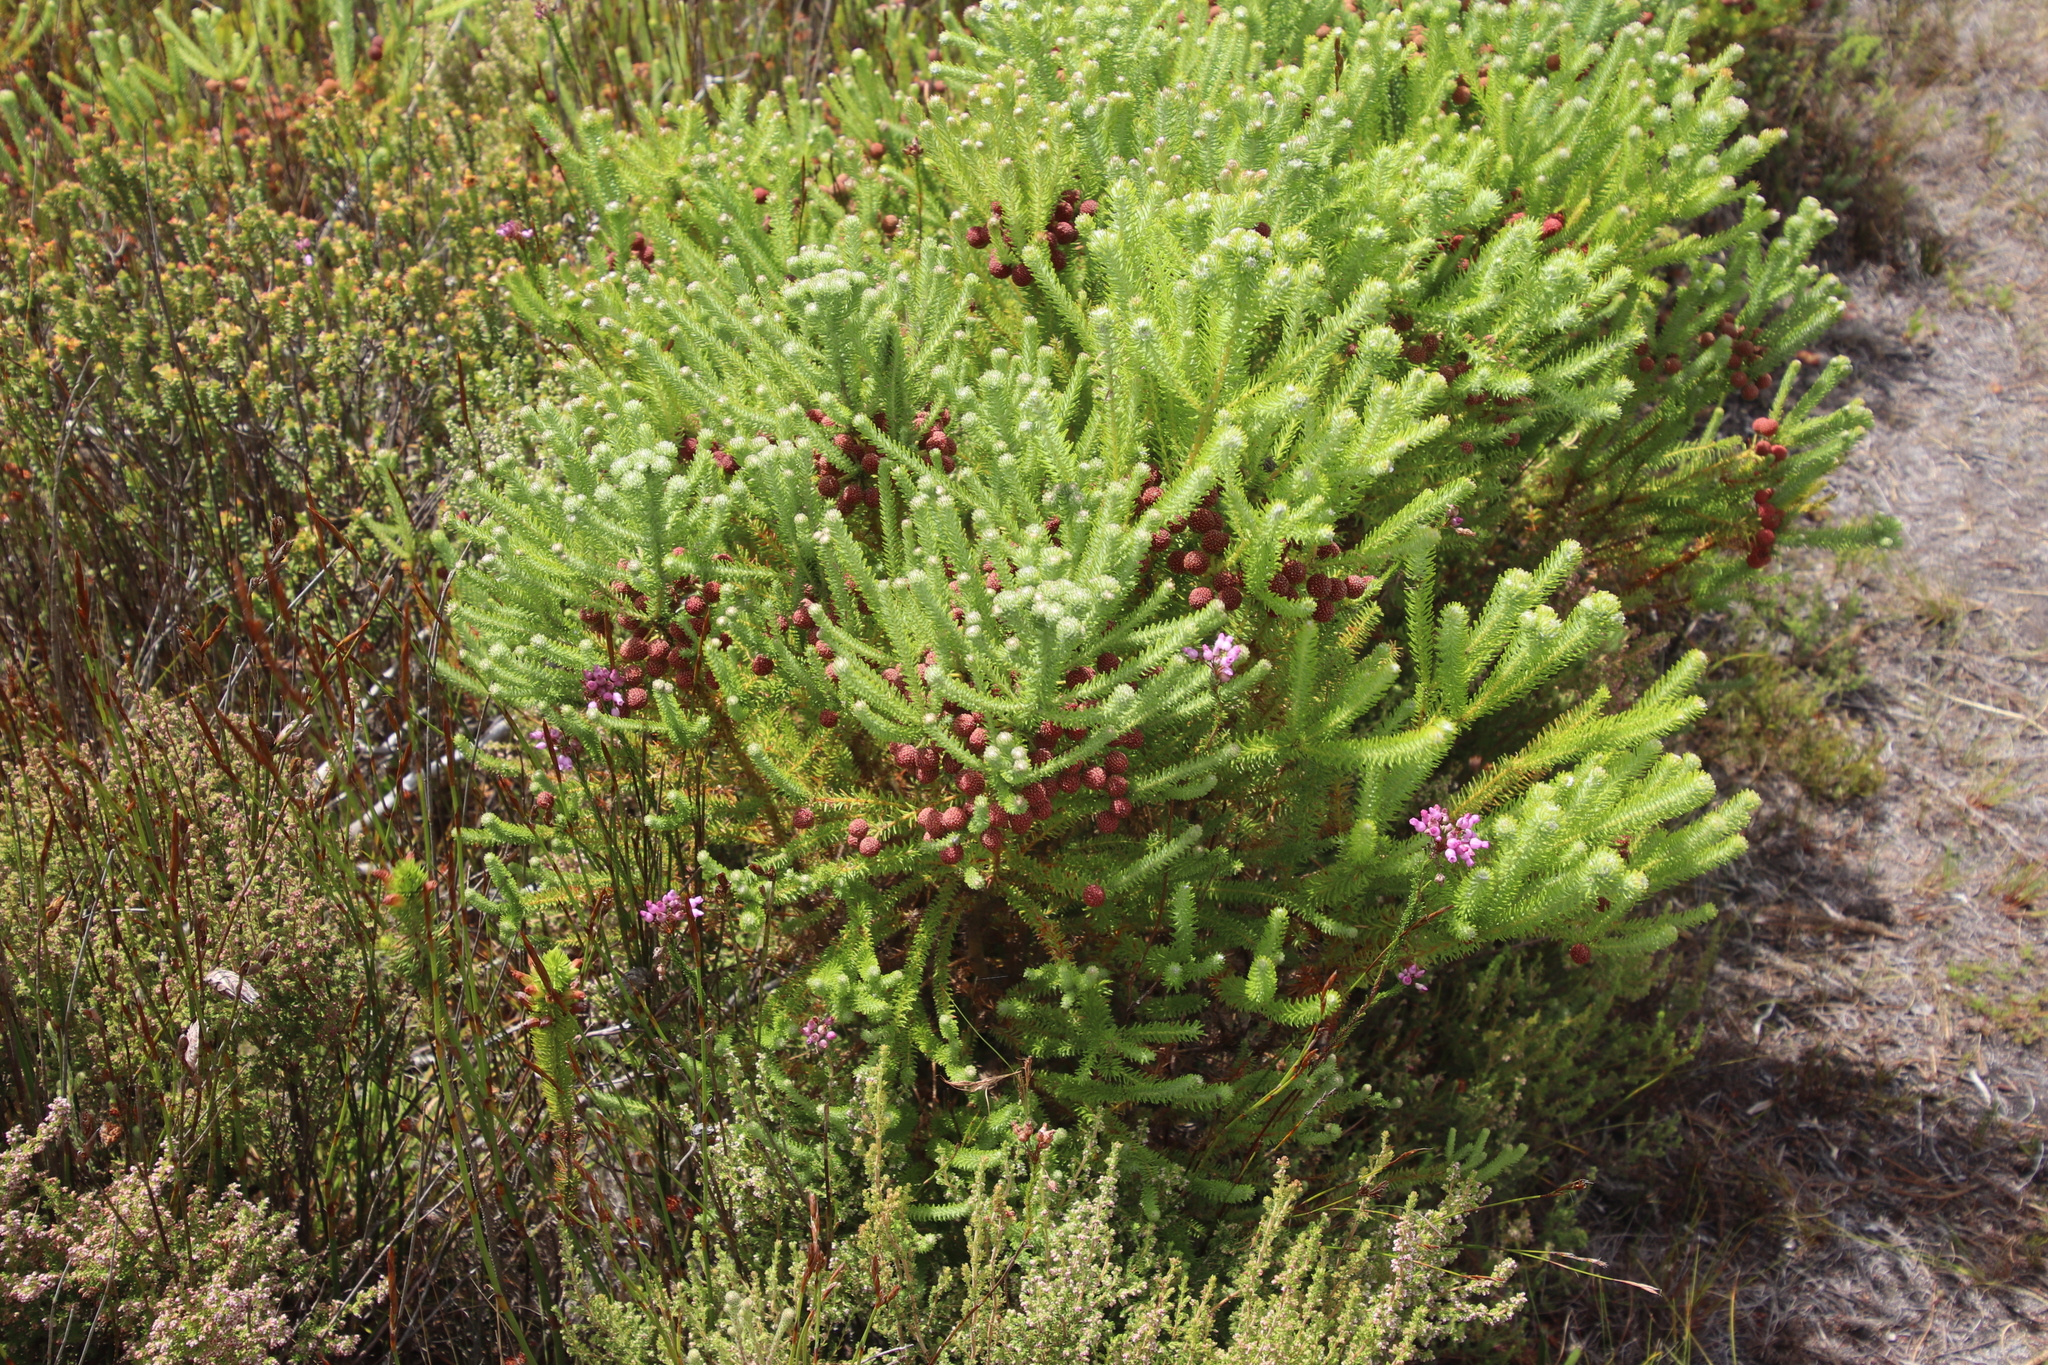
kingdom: Plantae
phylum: Tracheophyta
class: Magnoliopsida
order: Bruniales
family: Bruniaceae
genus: Berzelia
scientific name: Berzelia squarrosa
